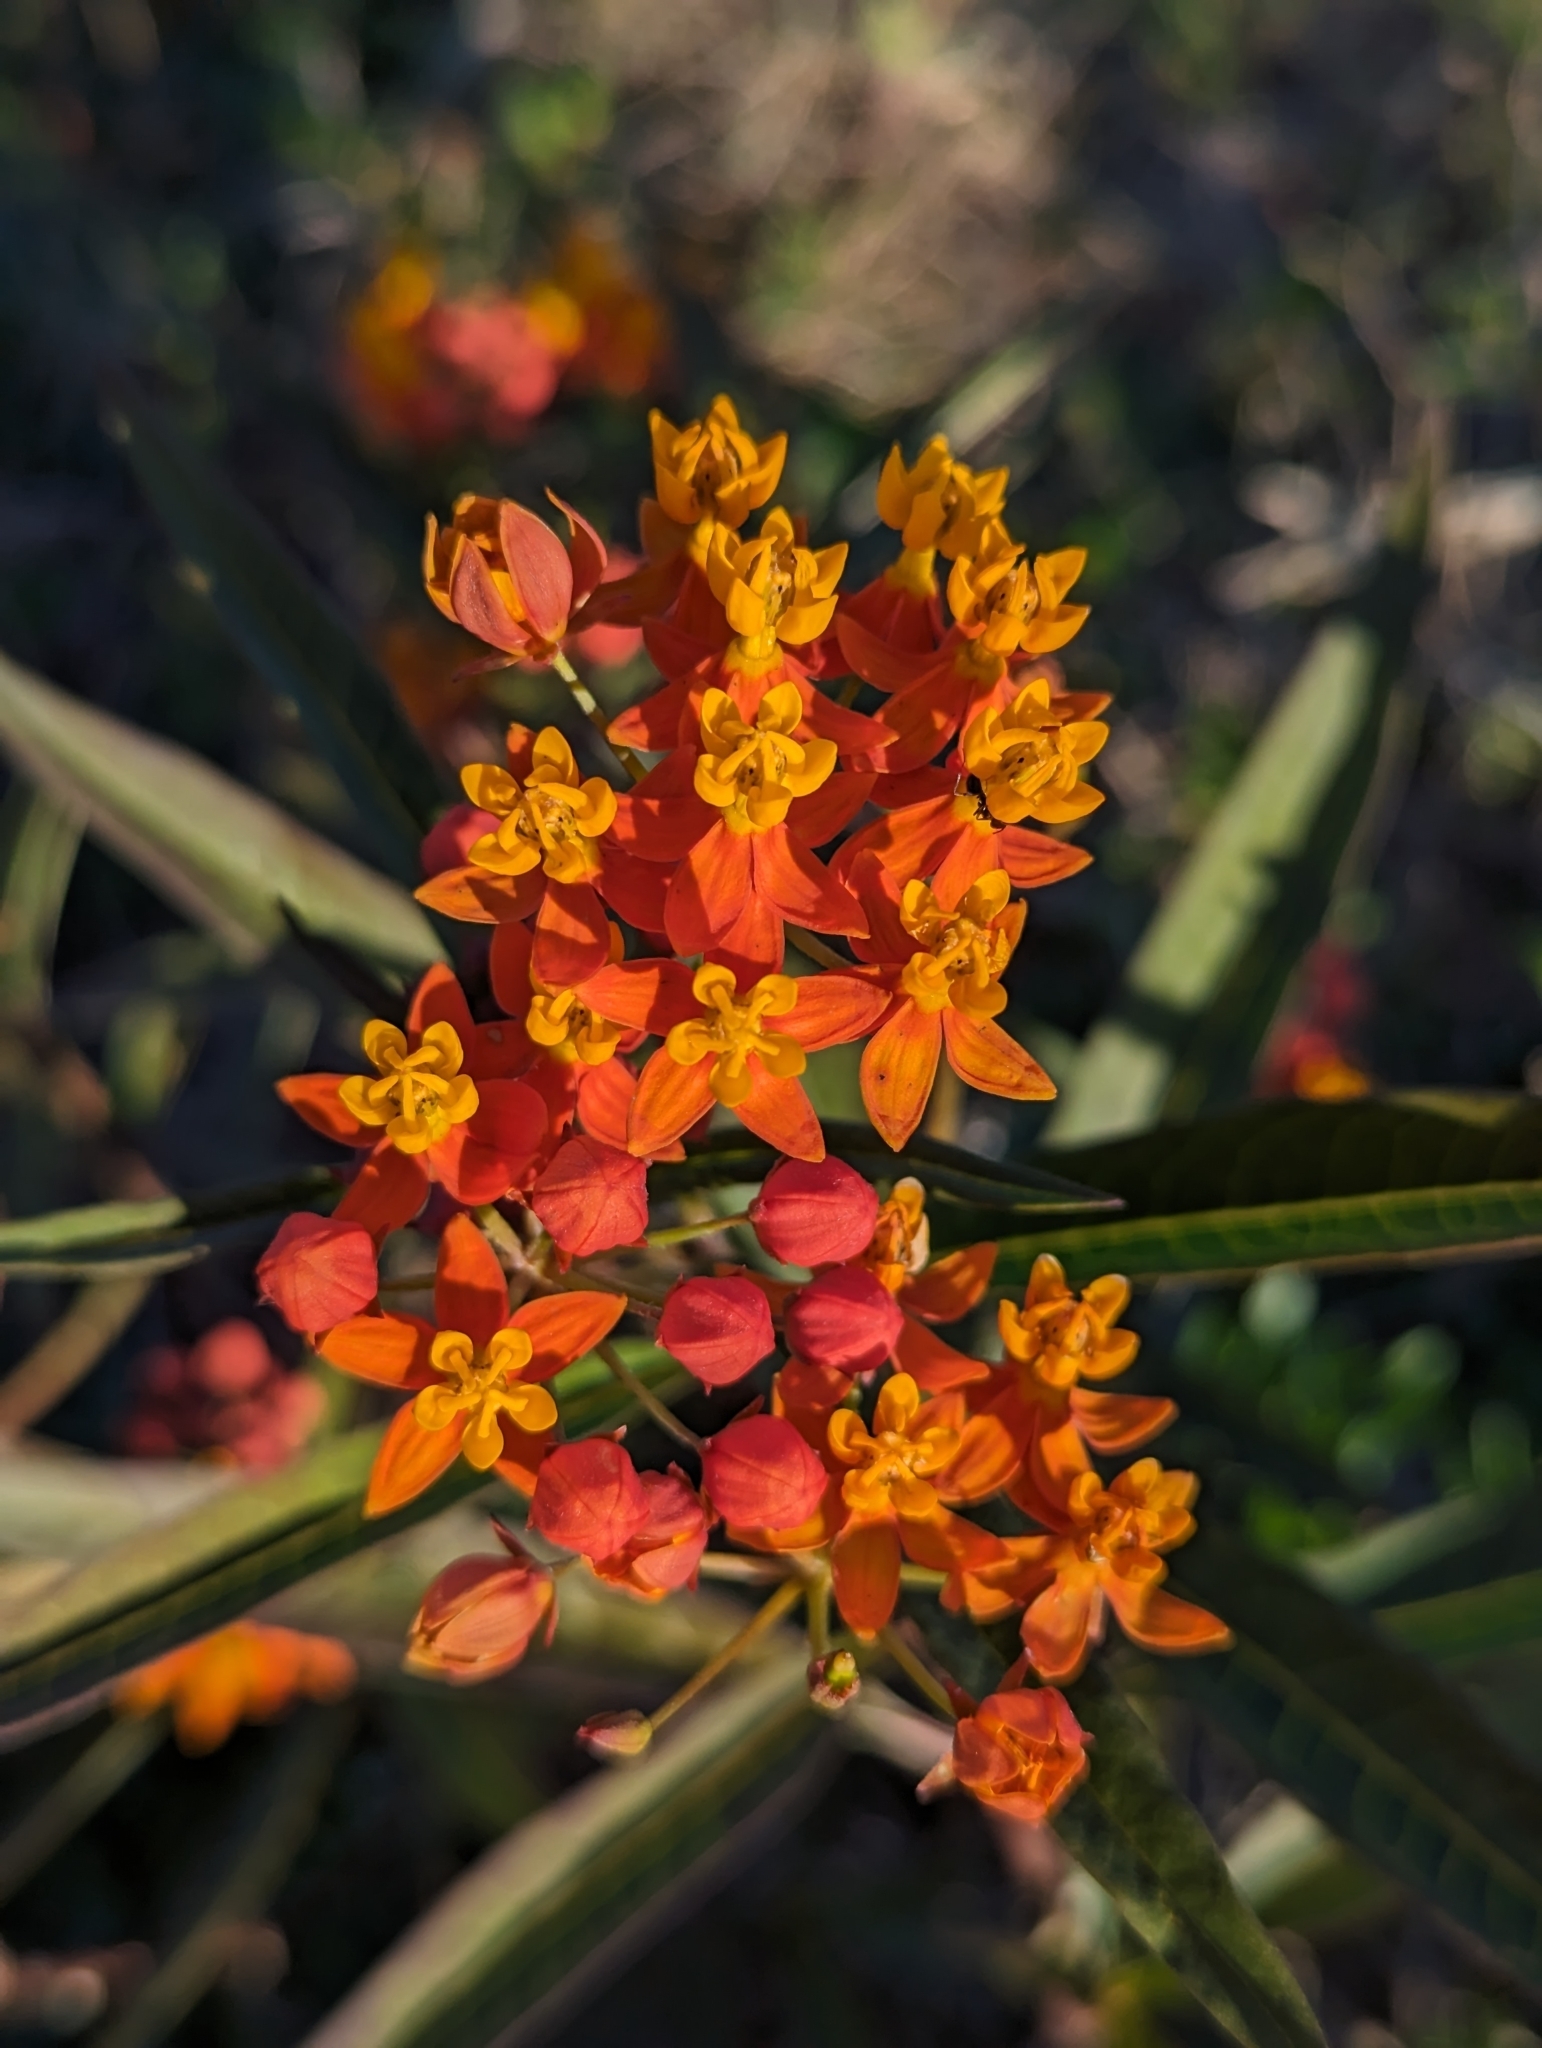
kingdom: Plantae
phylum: Tracheophyta
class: Magnoliopsida
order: Gentianales
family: Apocynaceae
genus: Asclepias
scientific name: Asclepias curassavica
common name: Bloodflower
